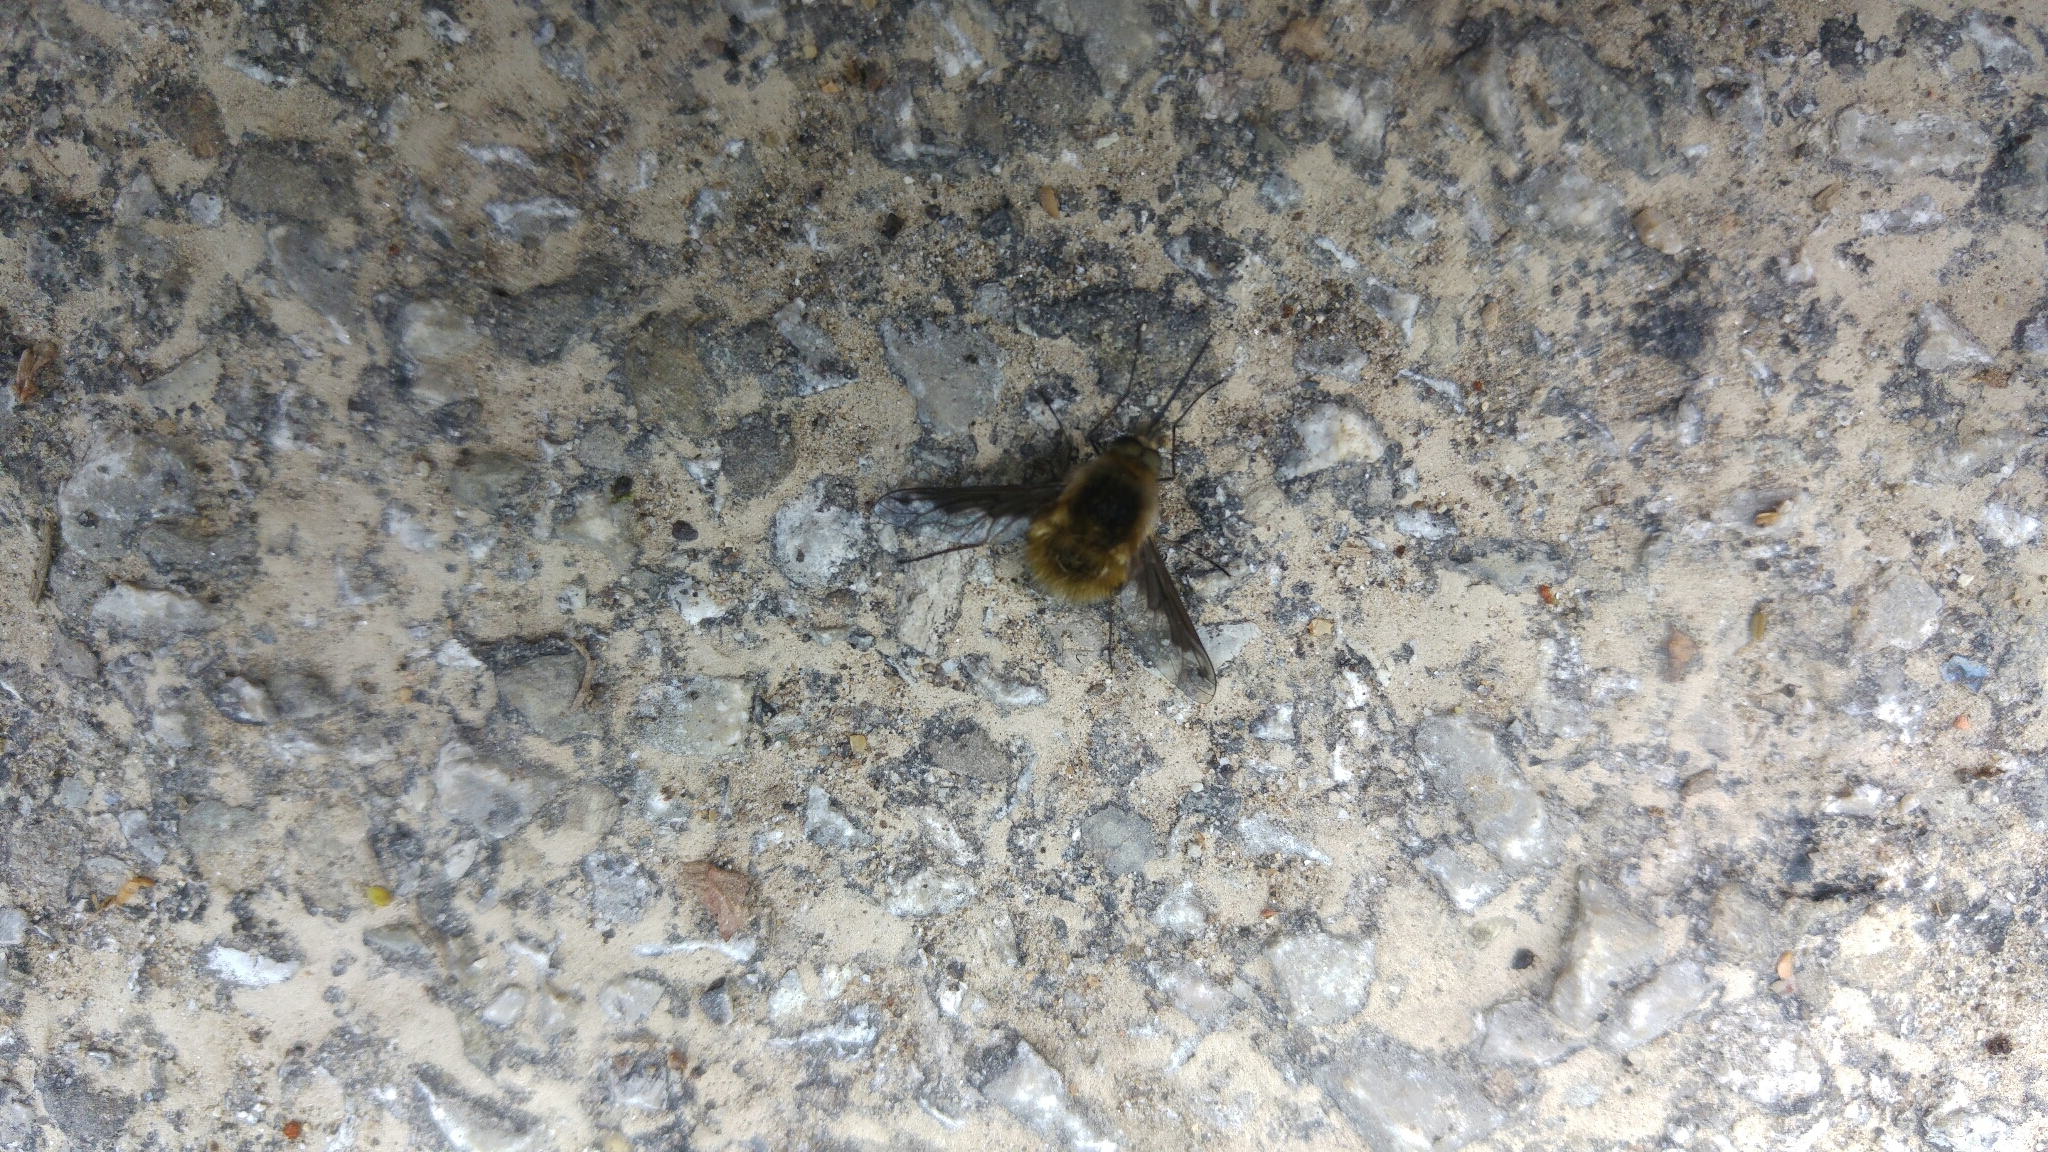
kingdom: Animalia
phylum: Arthropoda
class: Insecta
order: Diptera
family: Bombyliidae
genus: Bombylius
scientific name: Bombylius fimbriatus
